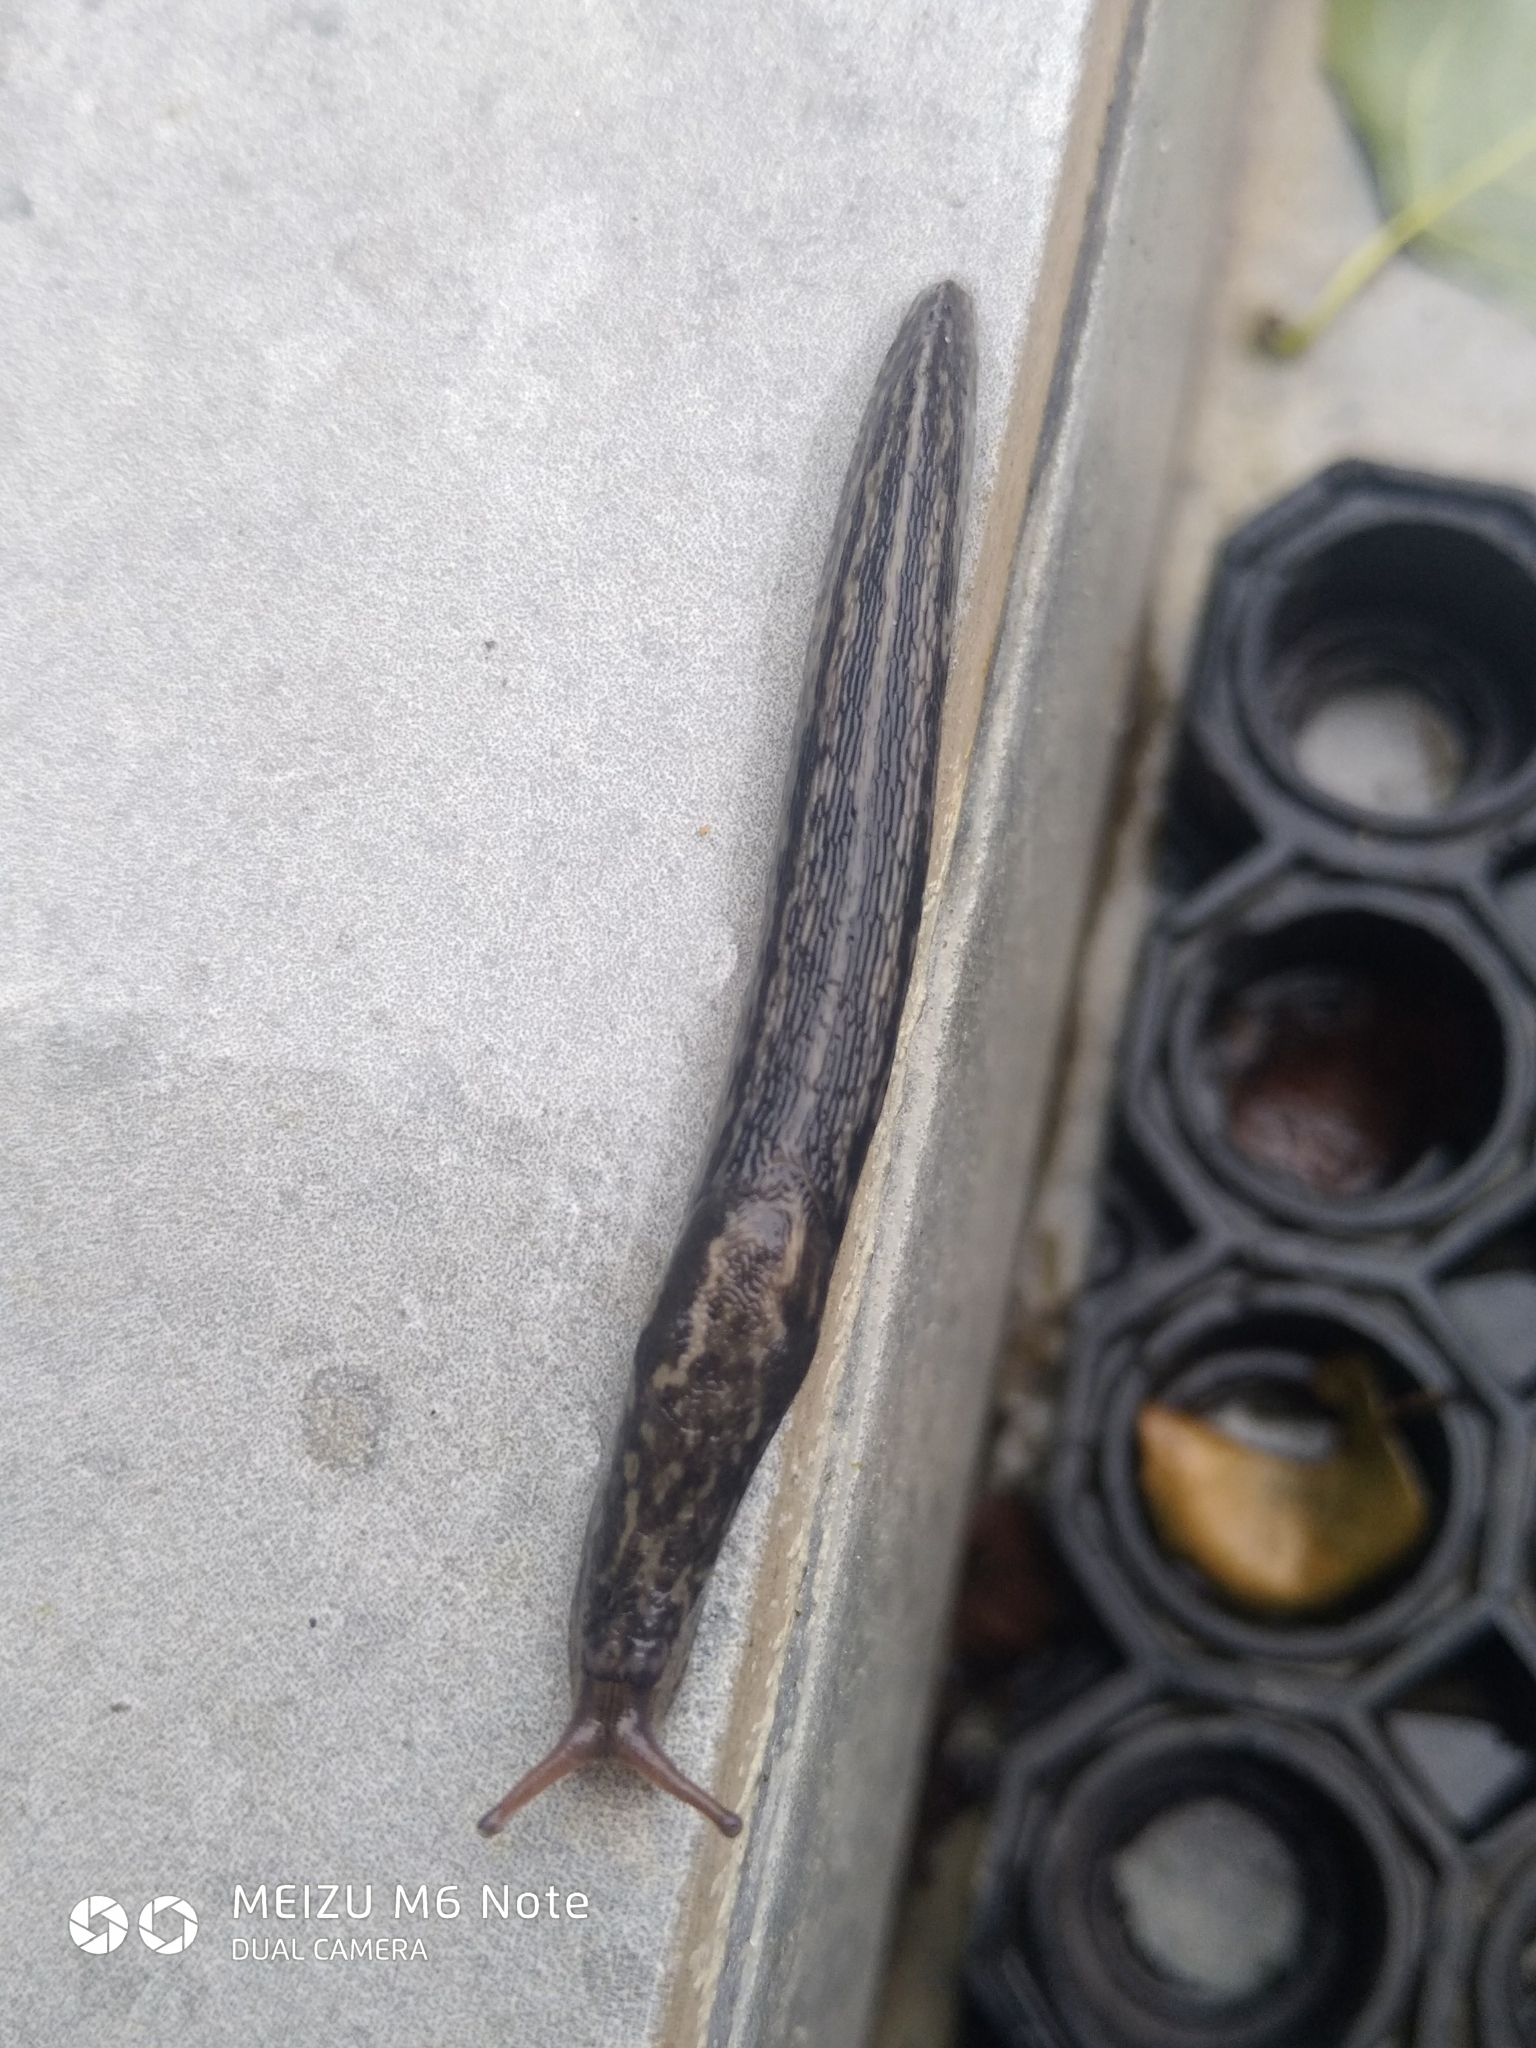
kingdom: Animalia
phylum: Mollusca
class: Gastropoda
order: Stylommatophora
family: Limacidae
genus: Limax
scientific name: Limax maximus
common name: Great grey slug
